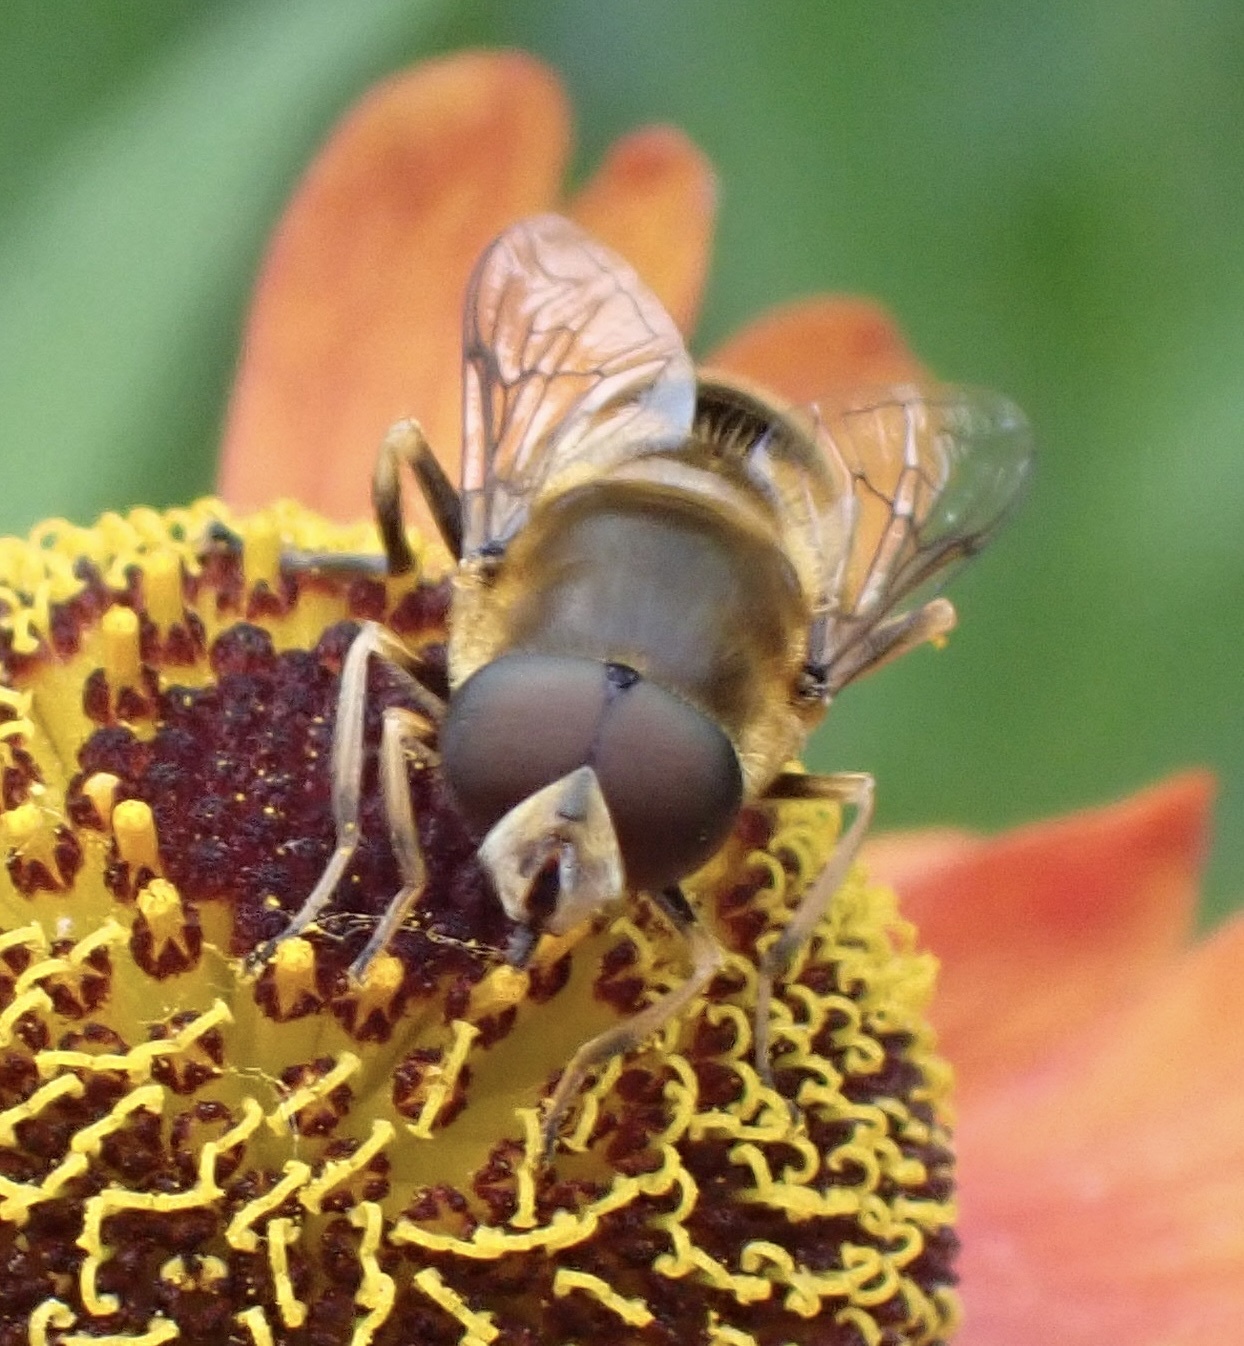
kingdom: Animalia
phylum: Arthropoda
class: Insecta
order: Diptera
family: Syrphidae
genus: Eristalis
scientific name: Eristalis nemorum
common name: Orange-spined drone fly
